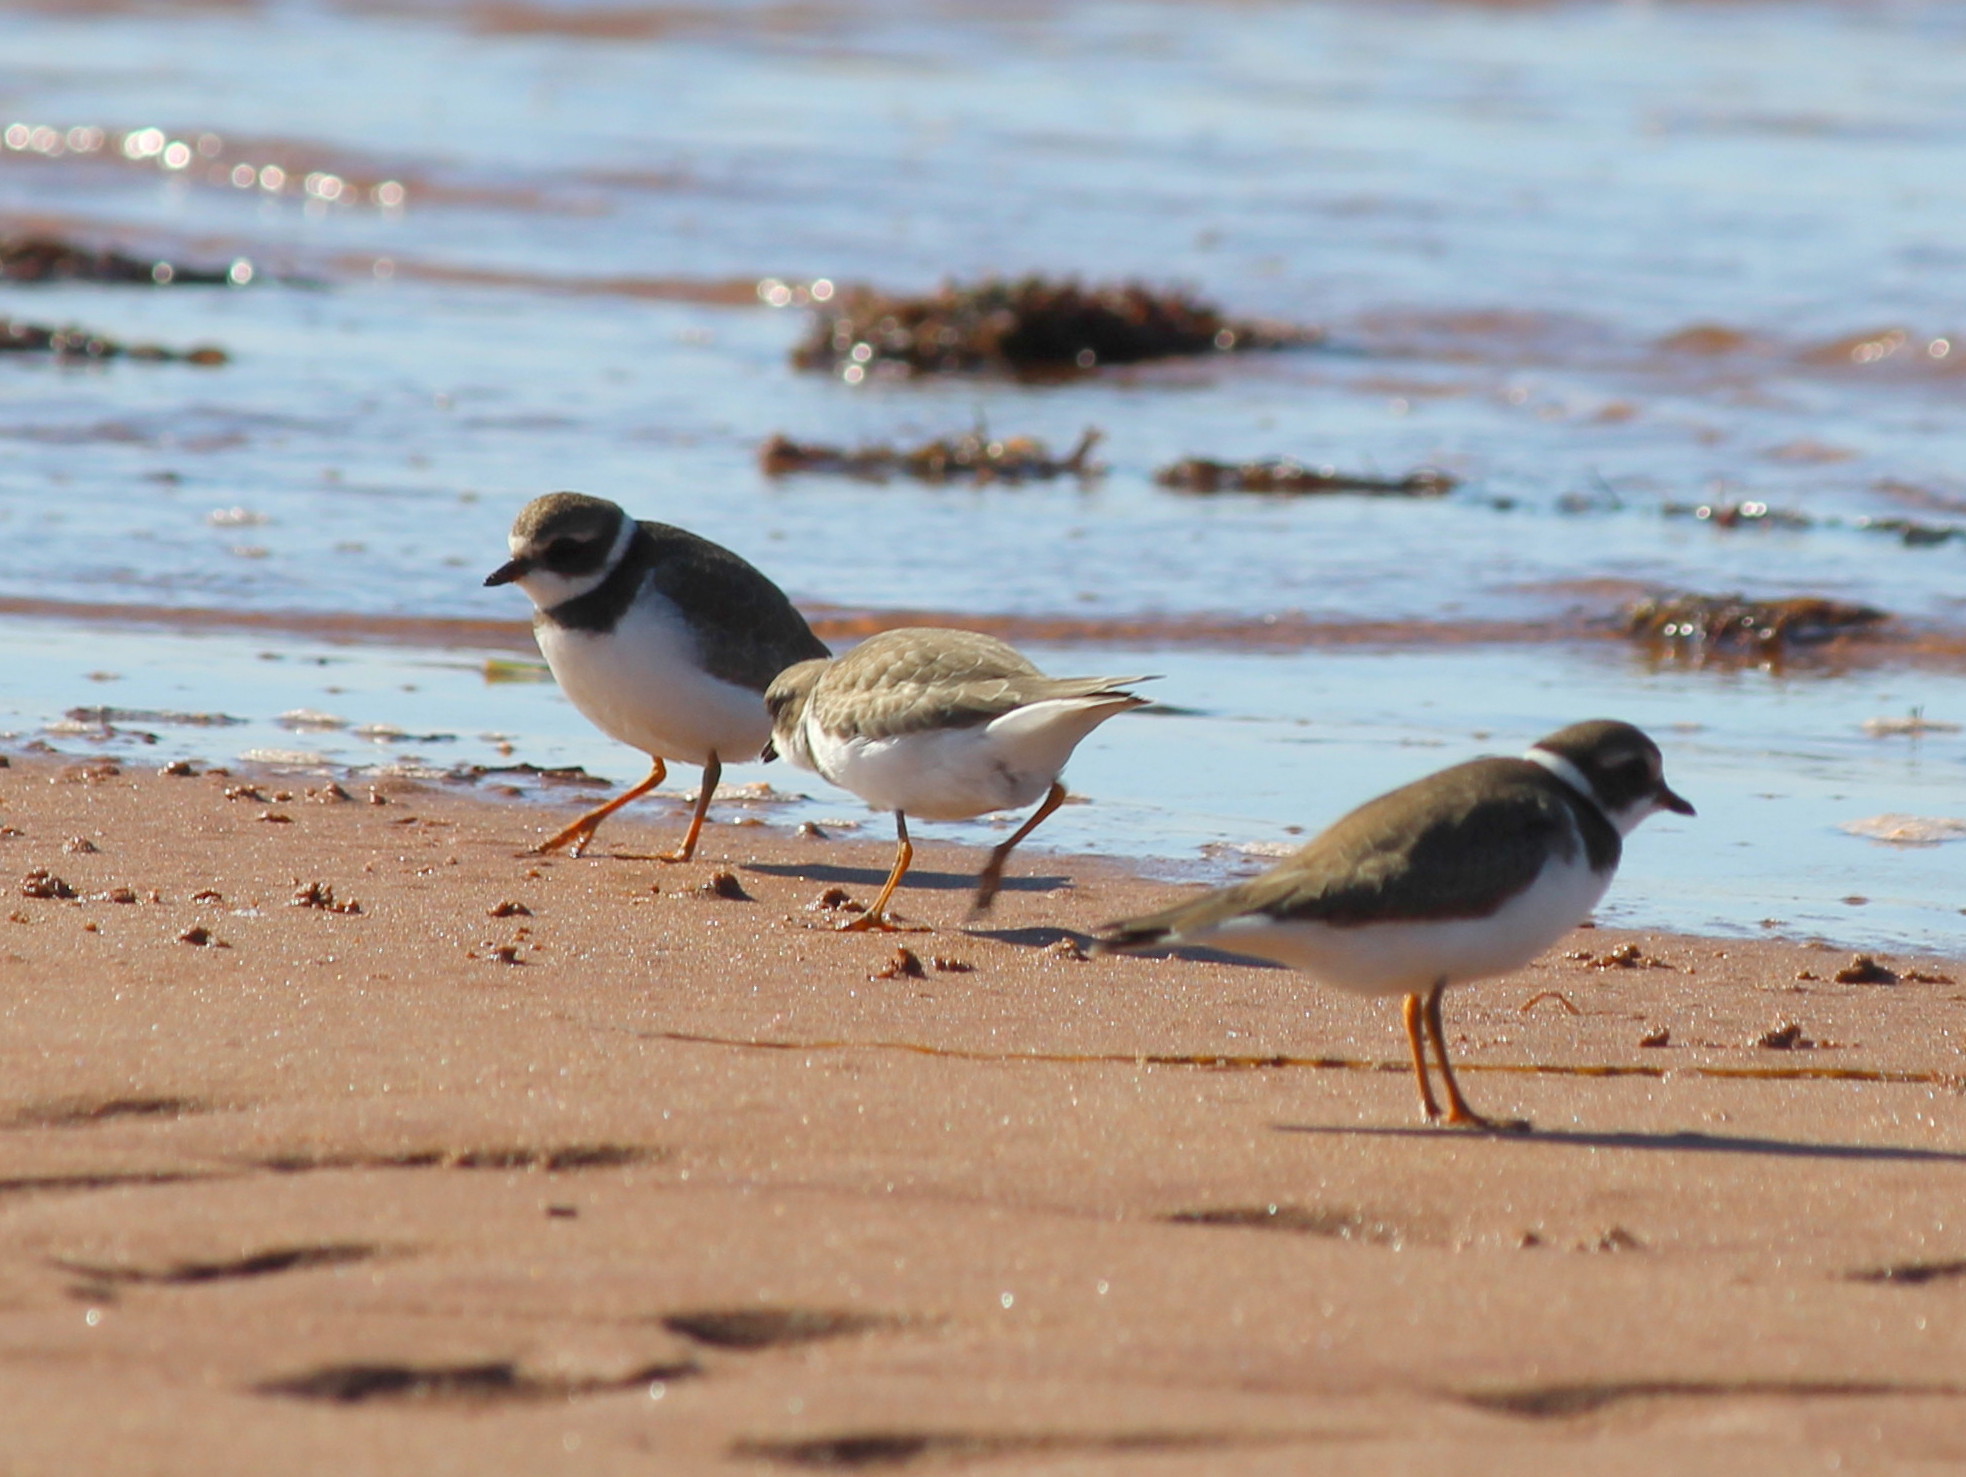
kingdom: Animalia
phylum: Chordata
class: Aves
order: Charadriiformes
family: Charadriidae
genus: Charadrius
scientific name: Charadrius semipalmatus
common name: Semipalmated plover
